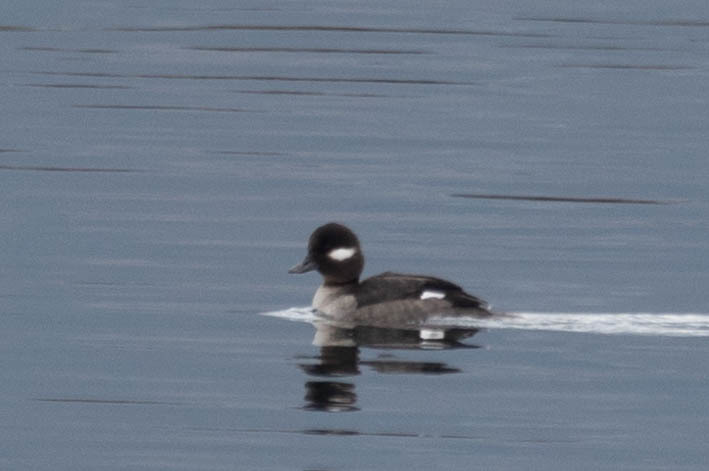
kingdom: Animalia
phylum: Chordata
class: Aves
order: Anseriformes
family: Anatidae
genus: Bucephala
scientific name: Bucephala albeola
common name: Bufflehead
